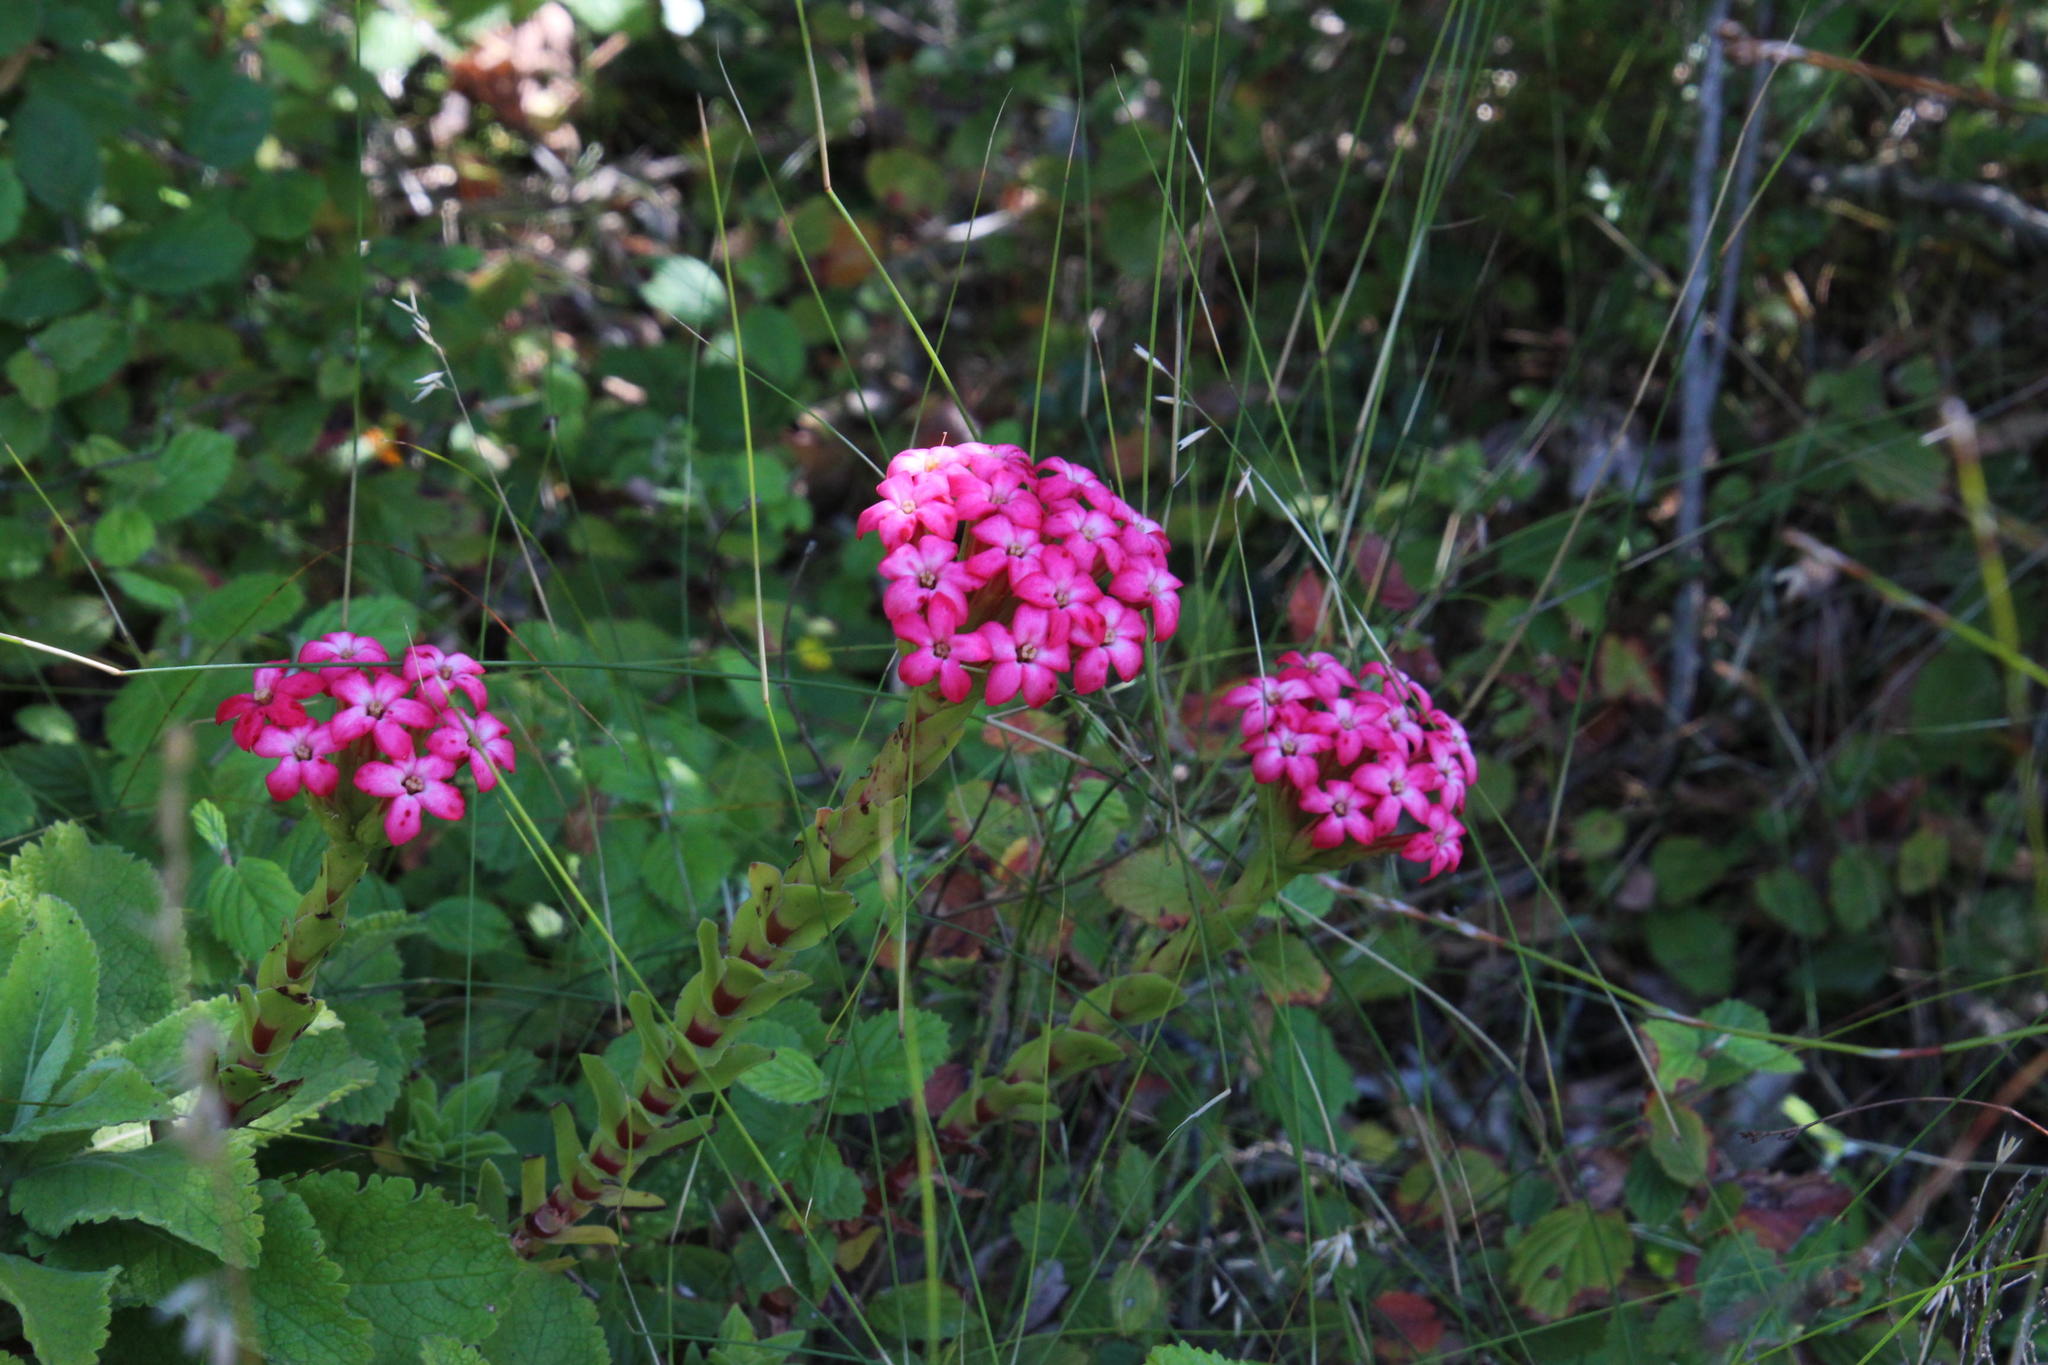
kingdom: Plantae
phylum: Tracheophyta
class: Magnoliopsida
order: Saxifragales
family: Crassulaceae
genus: Crassula
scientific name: Crassula coccinea
